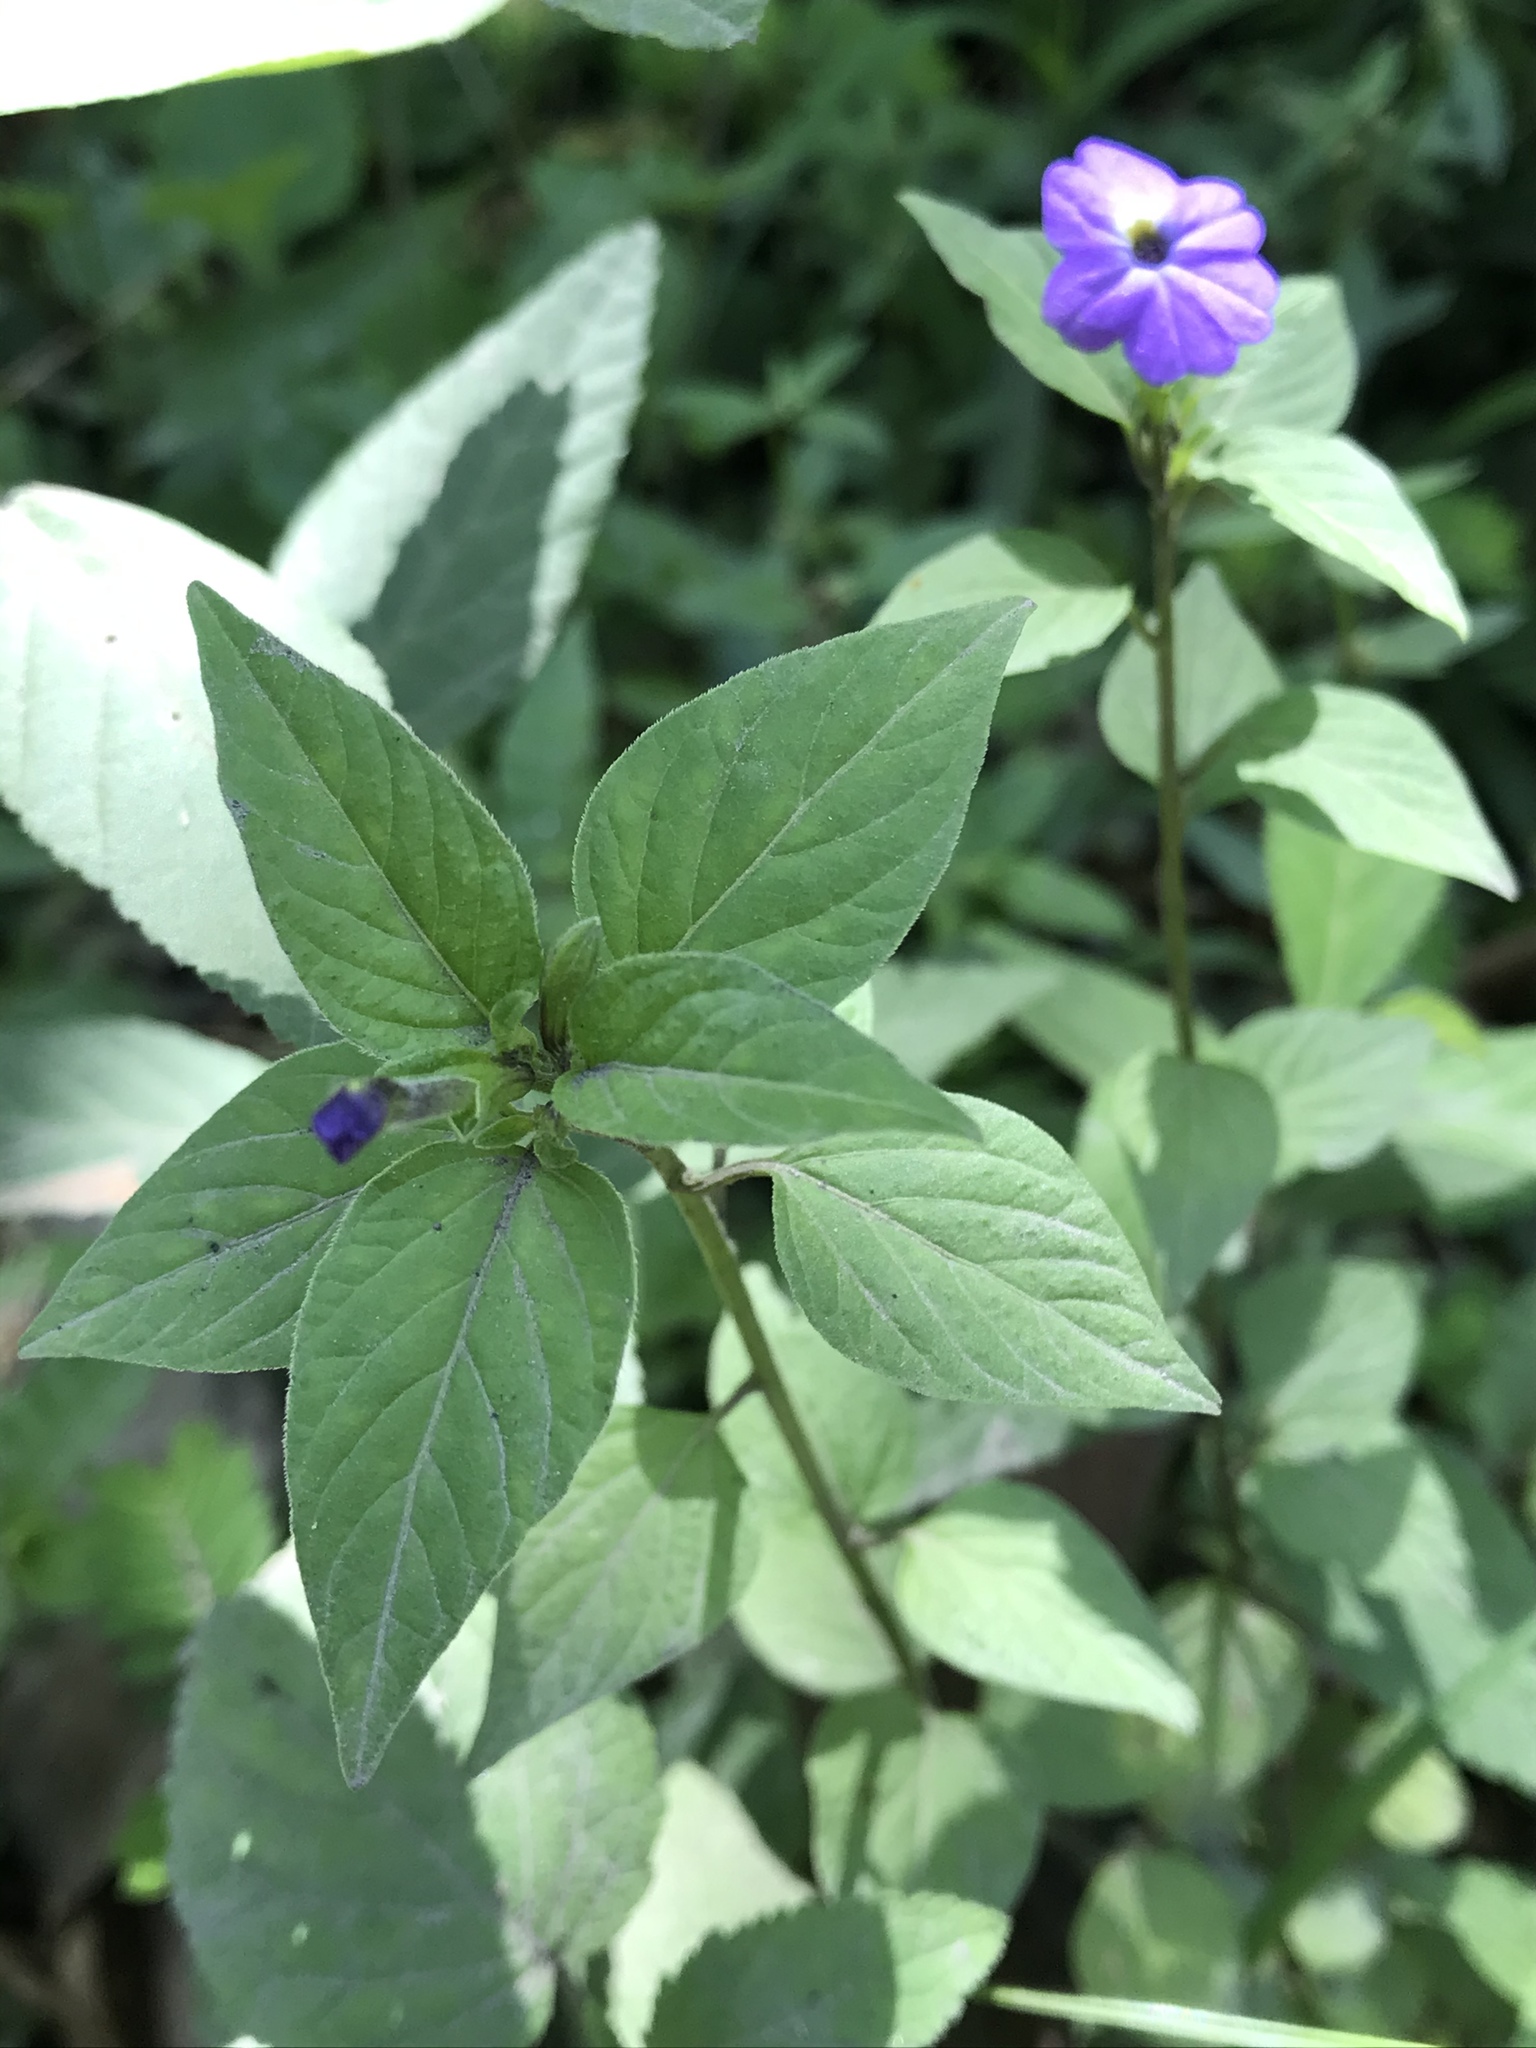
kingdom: Plantae
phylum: Tracheophyta
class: Magnoliopsida
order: Solanales
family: Solanaceae
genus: Browallia
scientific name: Browallia americana
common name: Jamaican forget-me-not
